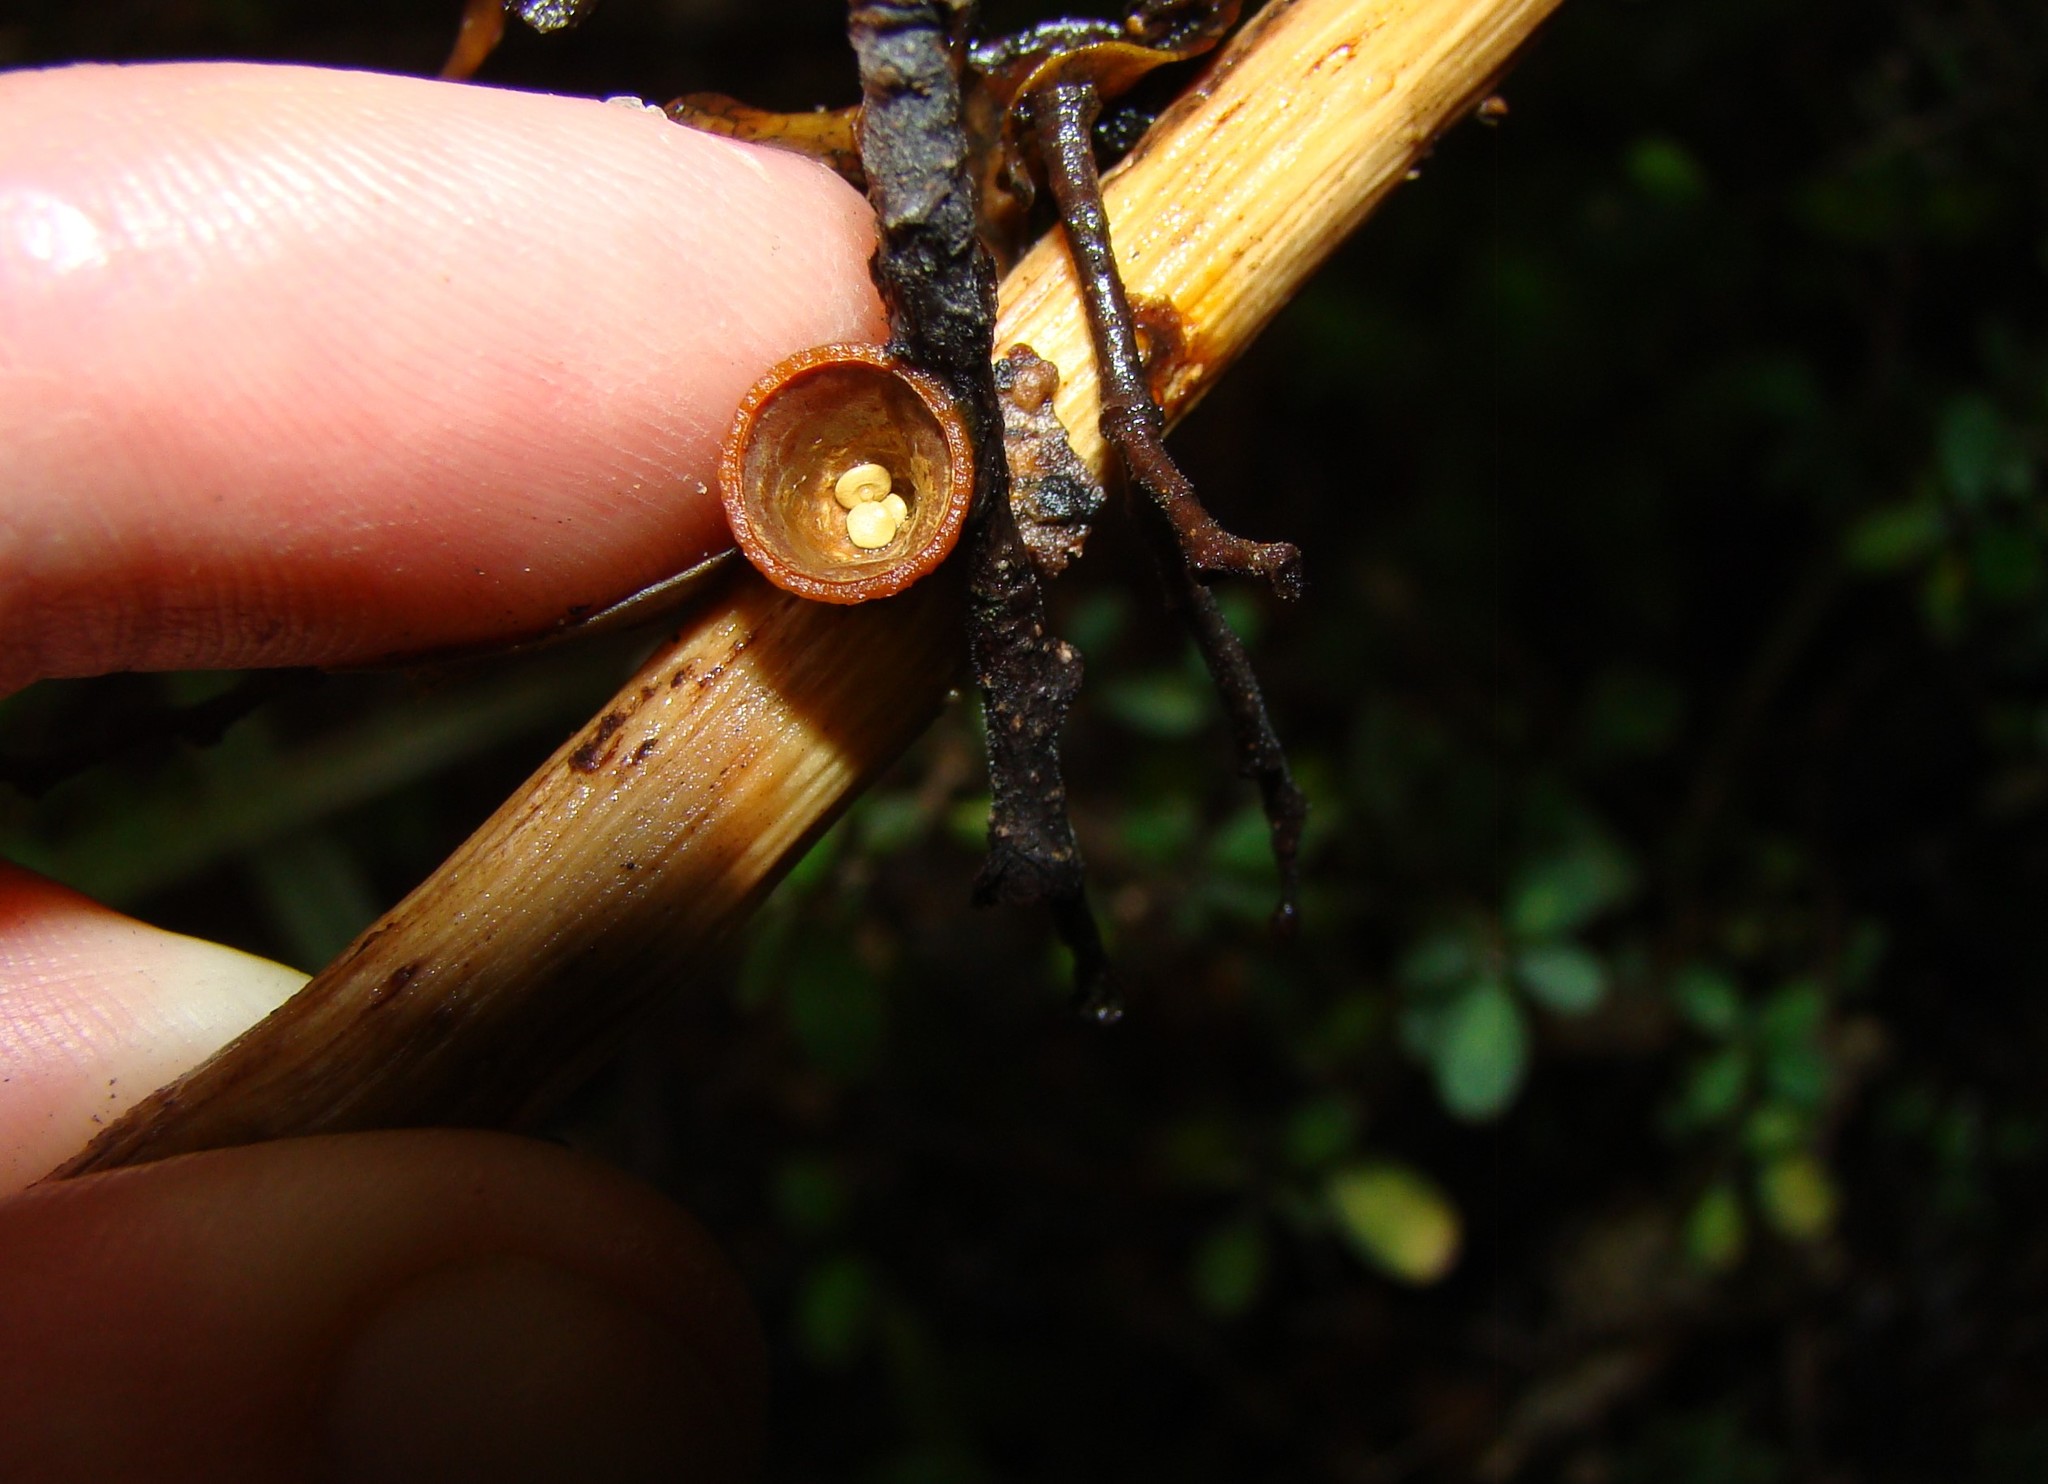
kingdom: Fungi
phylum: Basidiomycota
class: Agaricomycetes
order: Agaricales
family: Nidulariaceae
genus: Crucibulum
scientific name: Crucibulum simile
